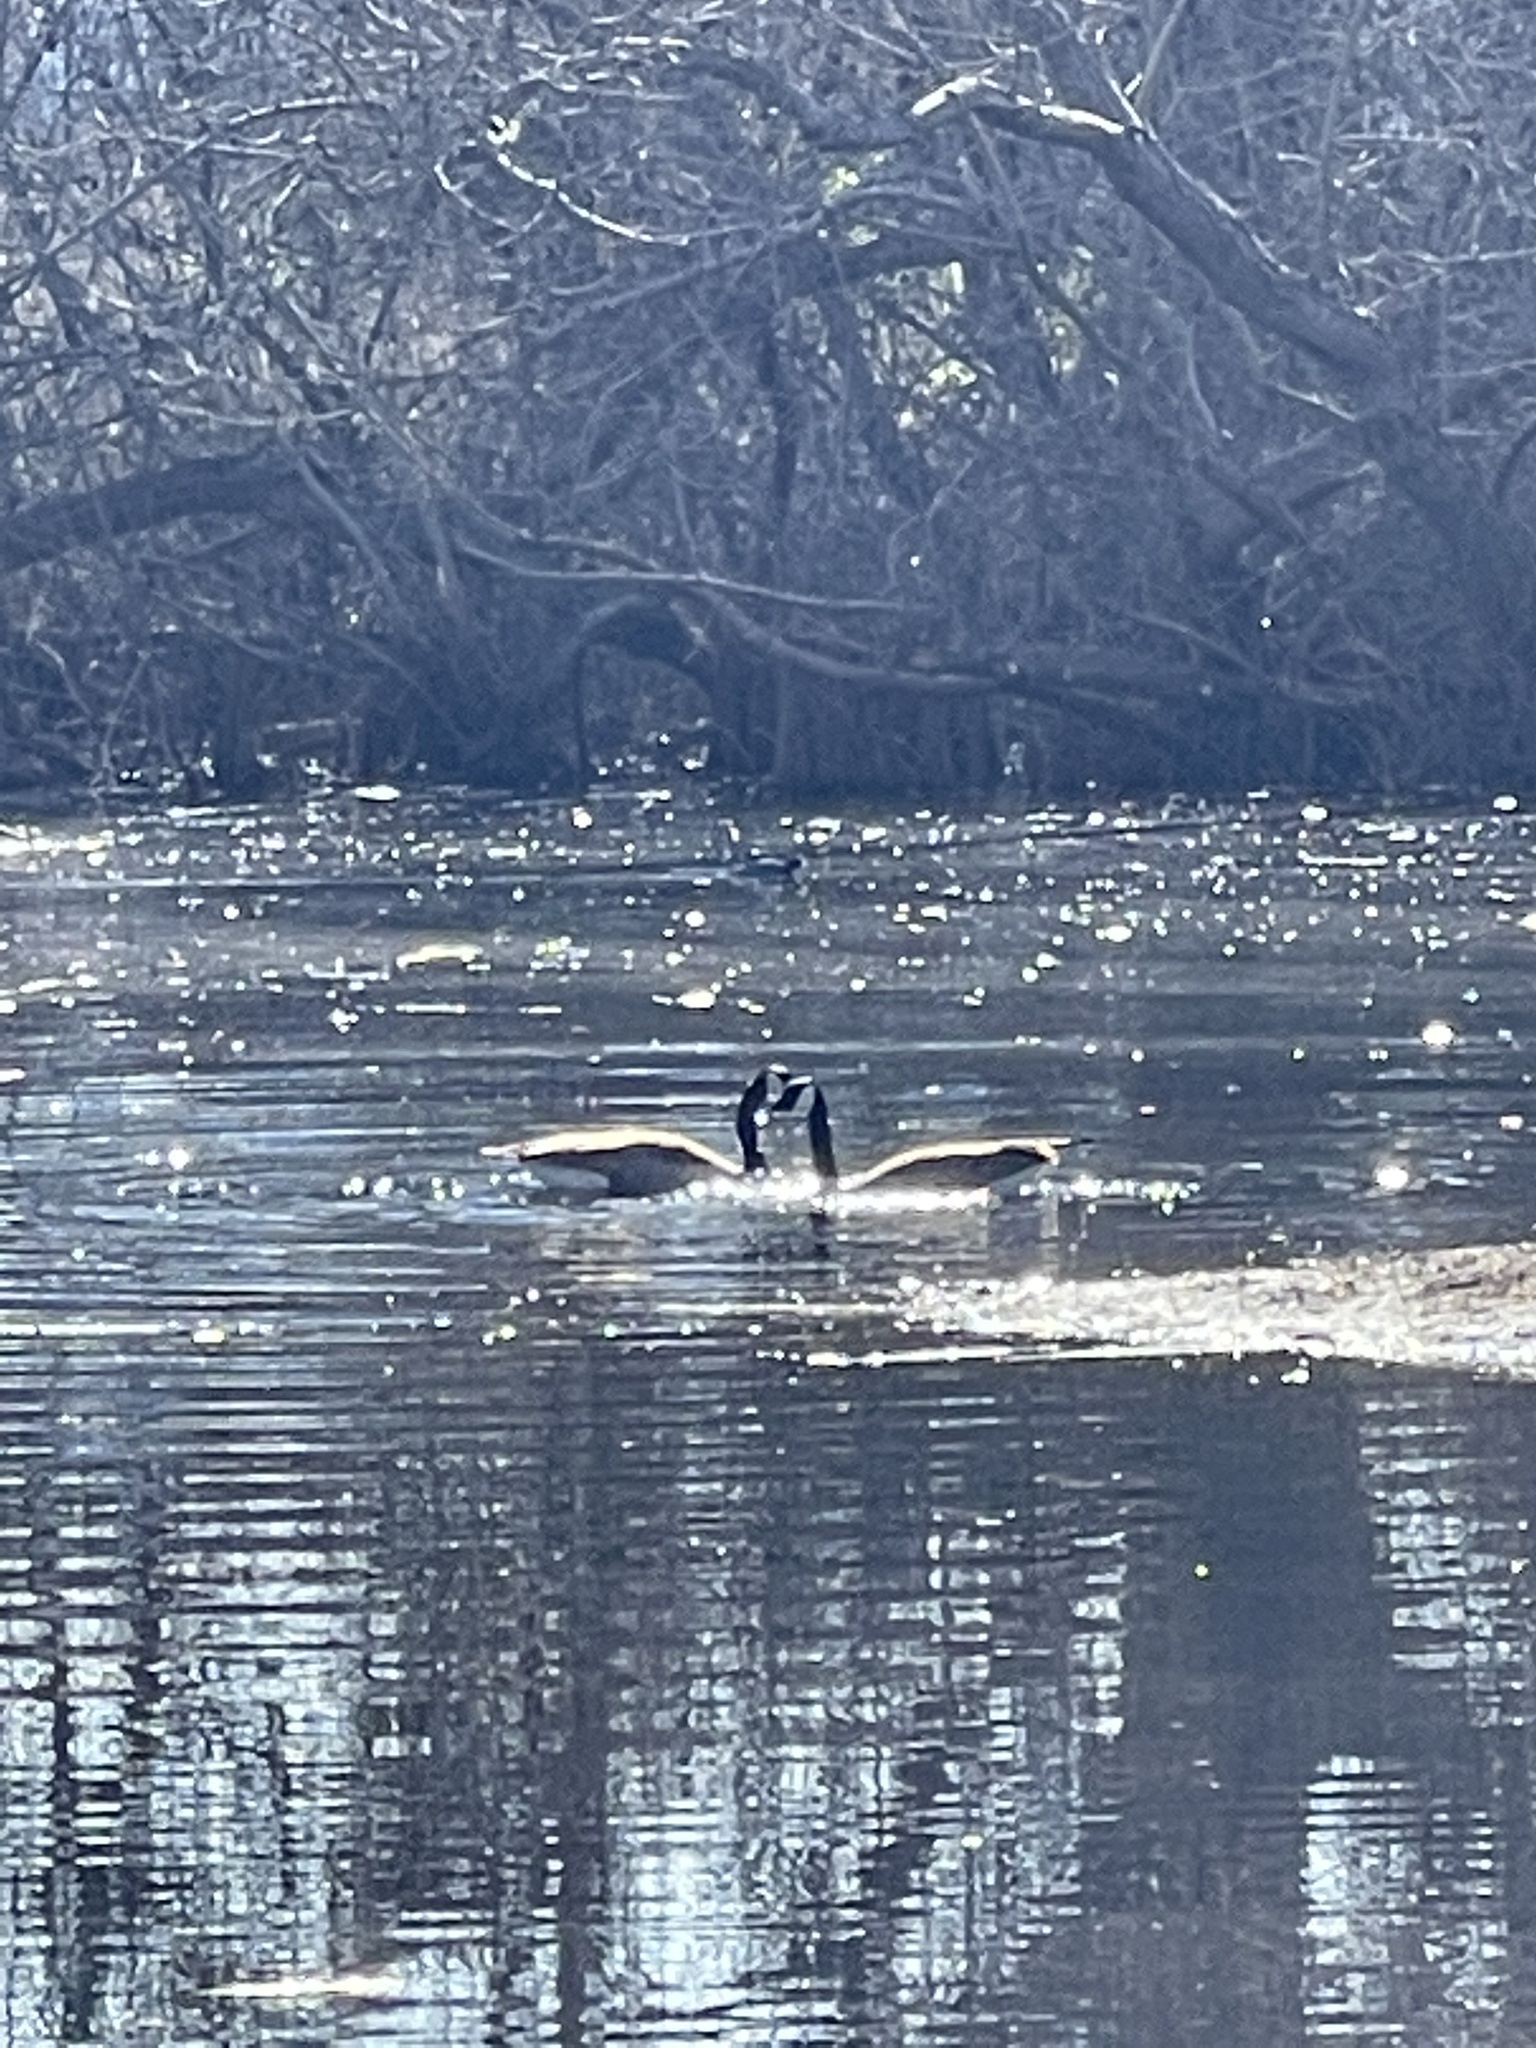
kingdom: Animalia
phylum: Chordata
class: Aves
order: Anseriformes
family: Anatidae
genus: Branta
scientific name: Branta canadensis
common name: Canada goose
